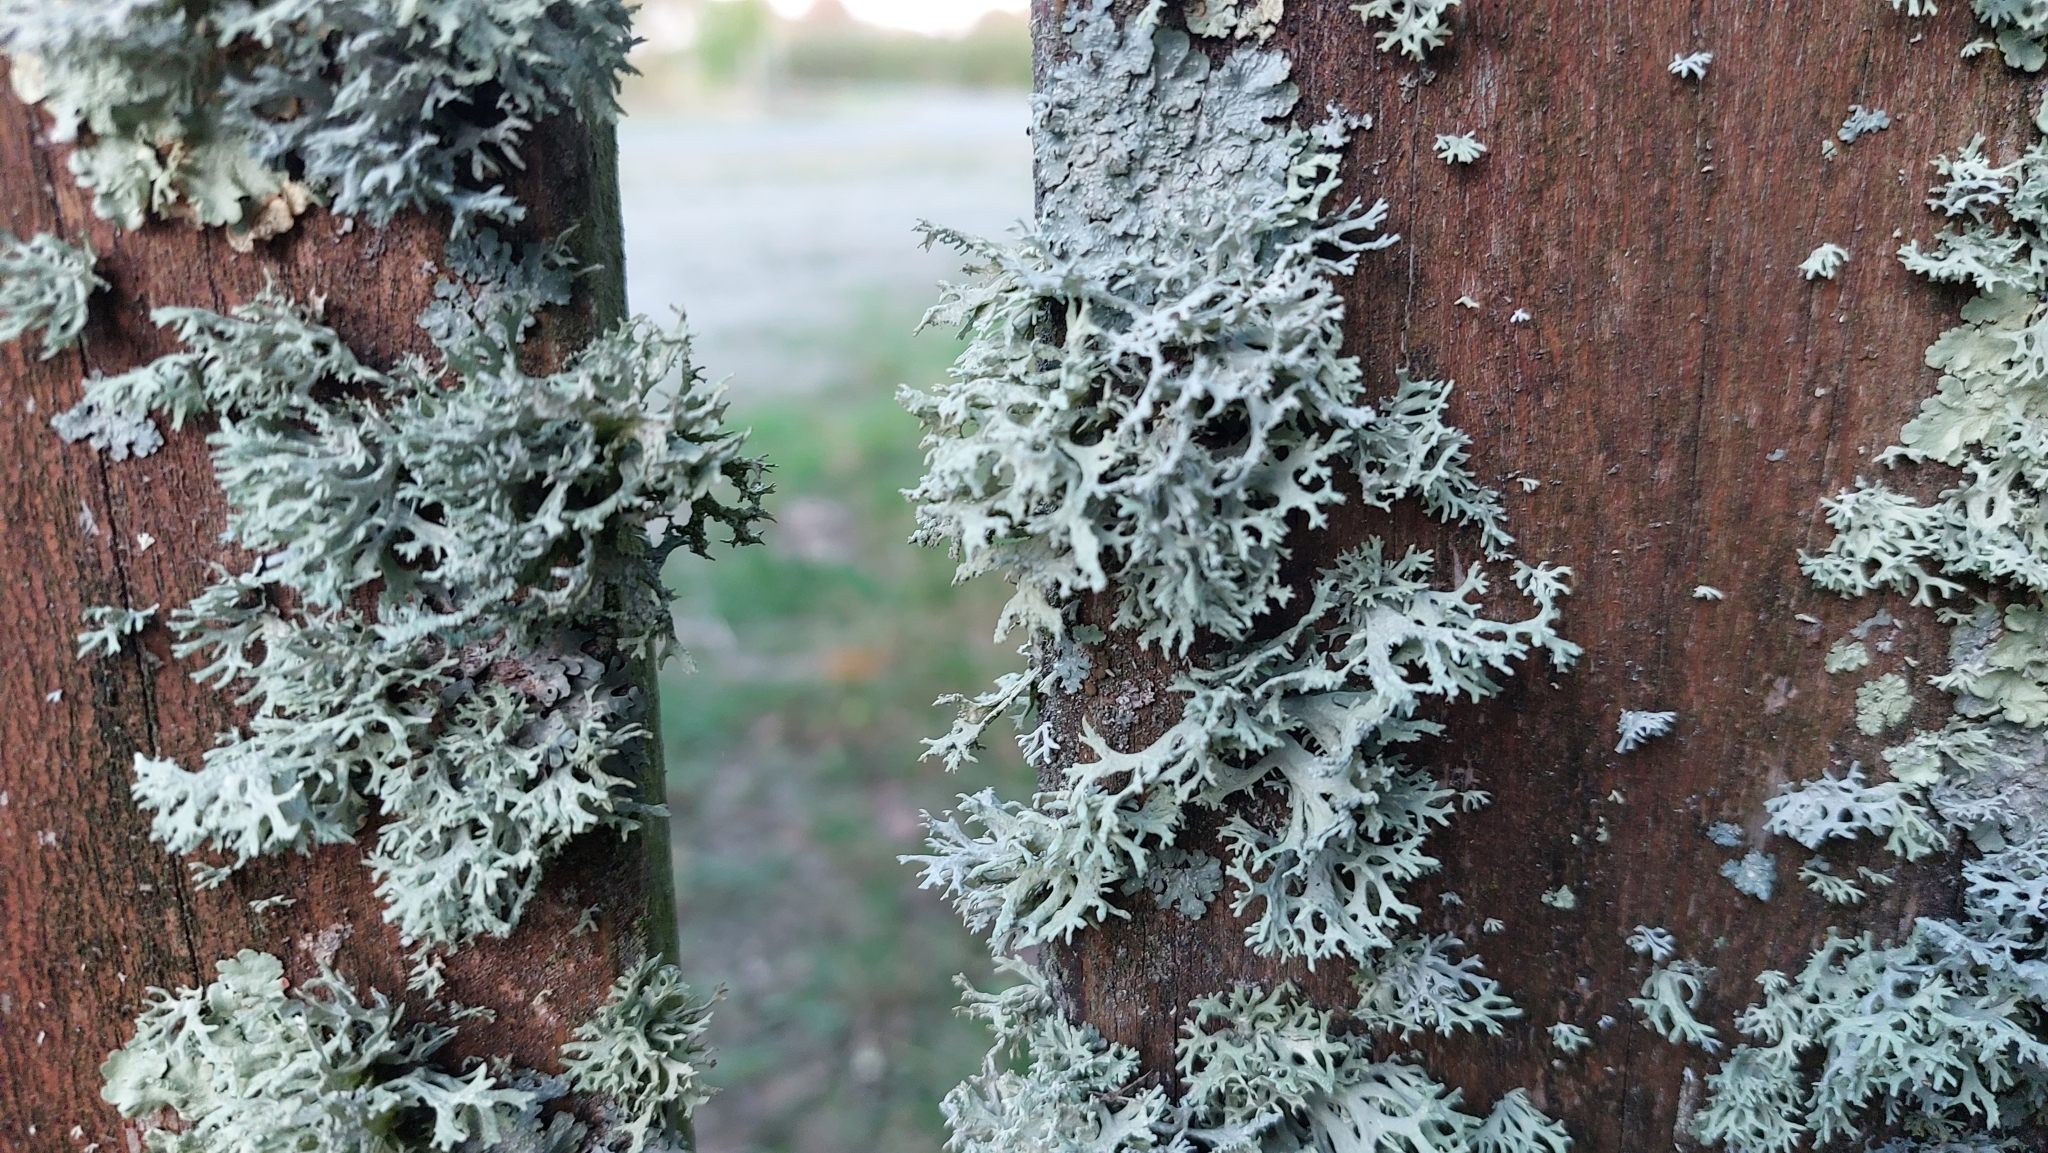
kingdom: Fungi
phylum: Ascomycota
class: Lecanoromycetes
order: Lecanorales
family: Parmeliaceae
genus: Evernia
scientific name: Evernia prunastri
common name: Oak moss
